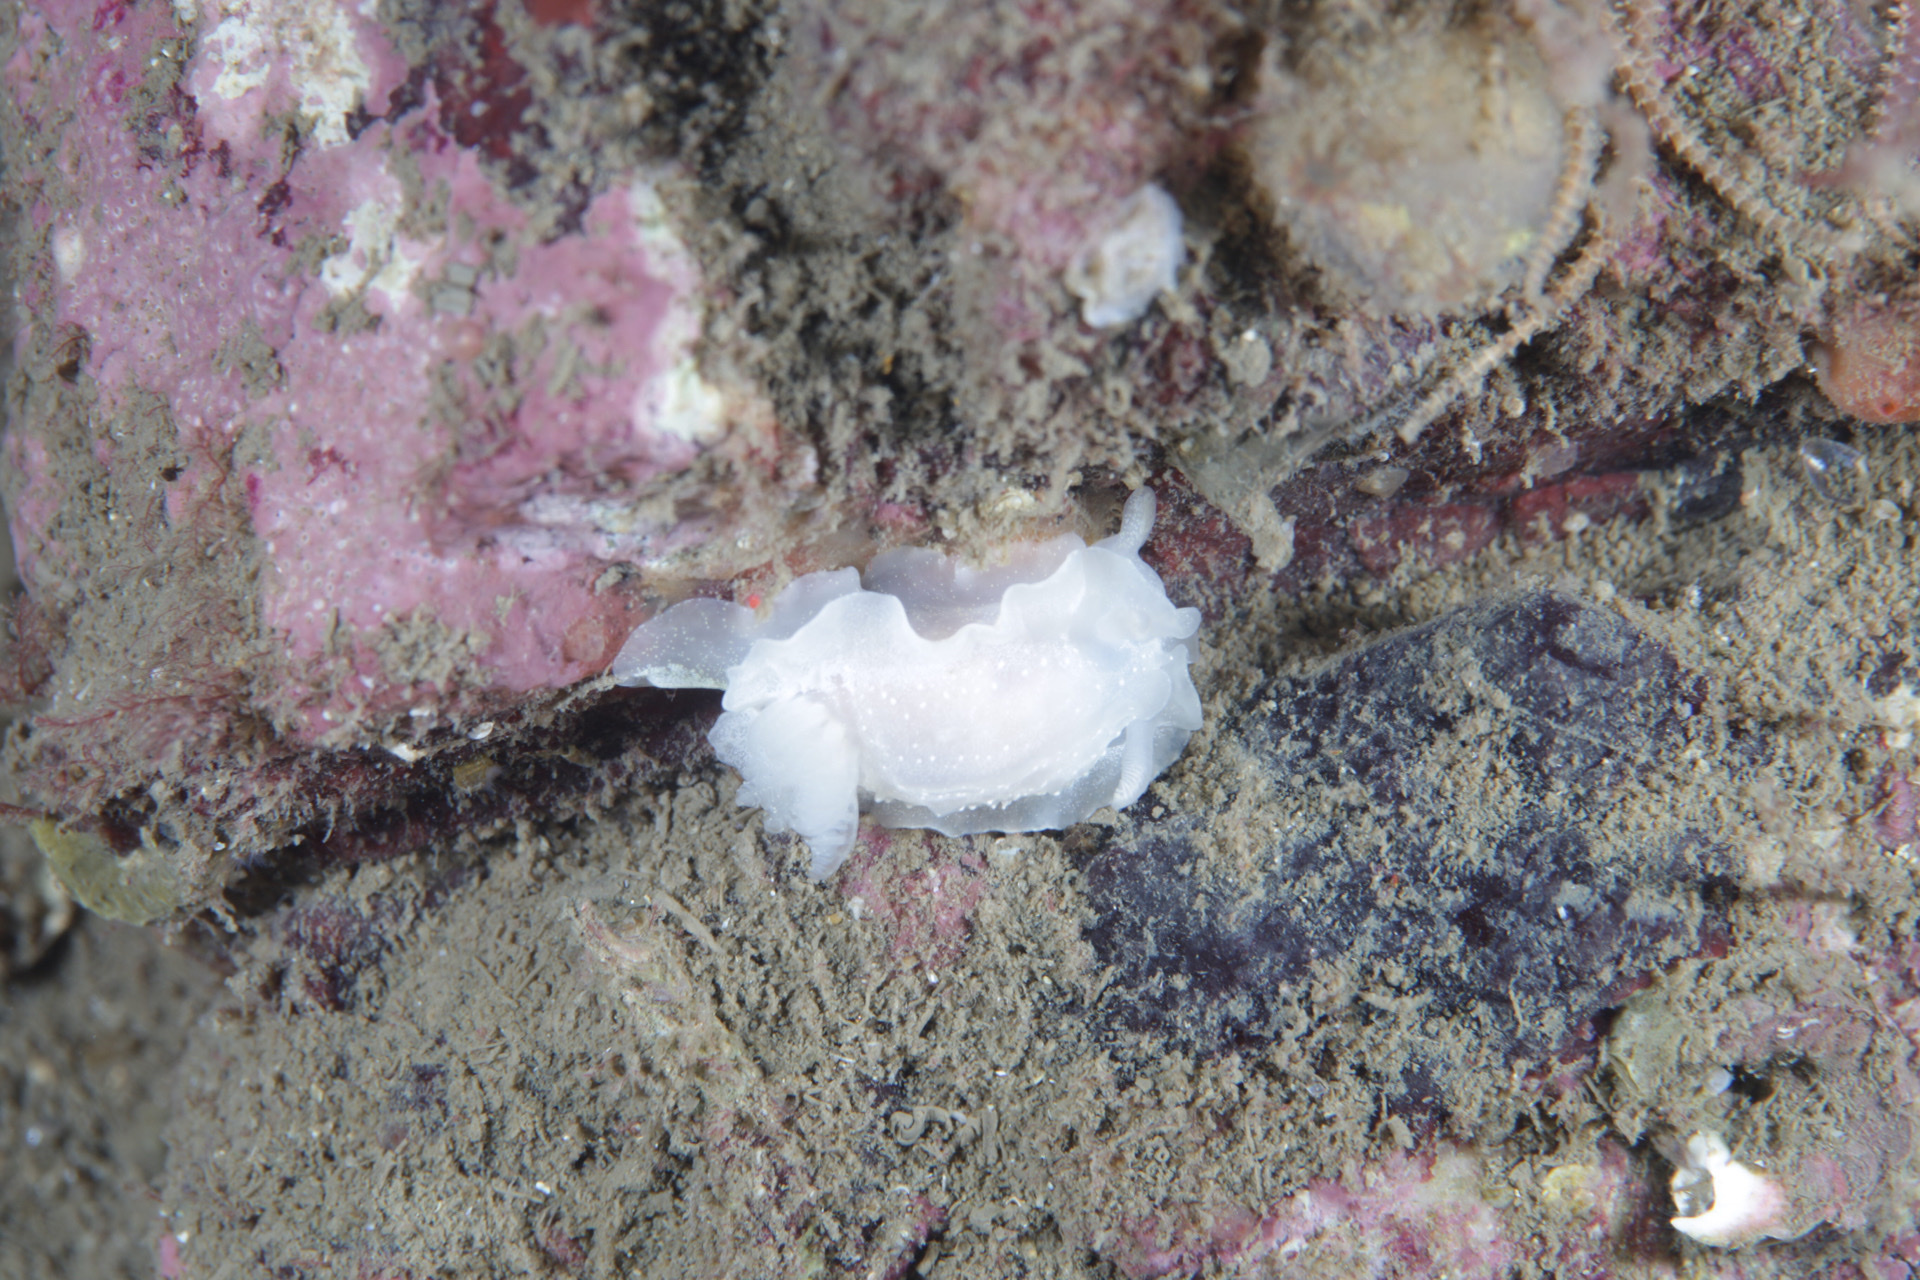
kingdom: Animalia
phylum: Mollusca
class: Gastropoda
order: Nudibranchia
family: Goniodorididae
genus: Okenia
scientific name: Okenia
